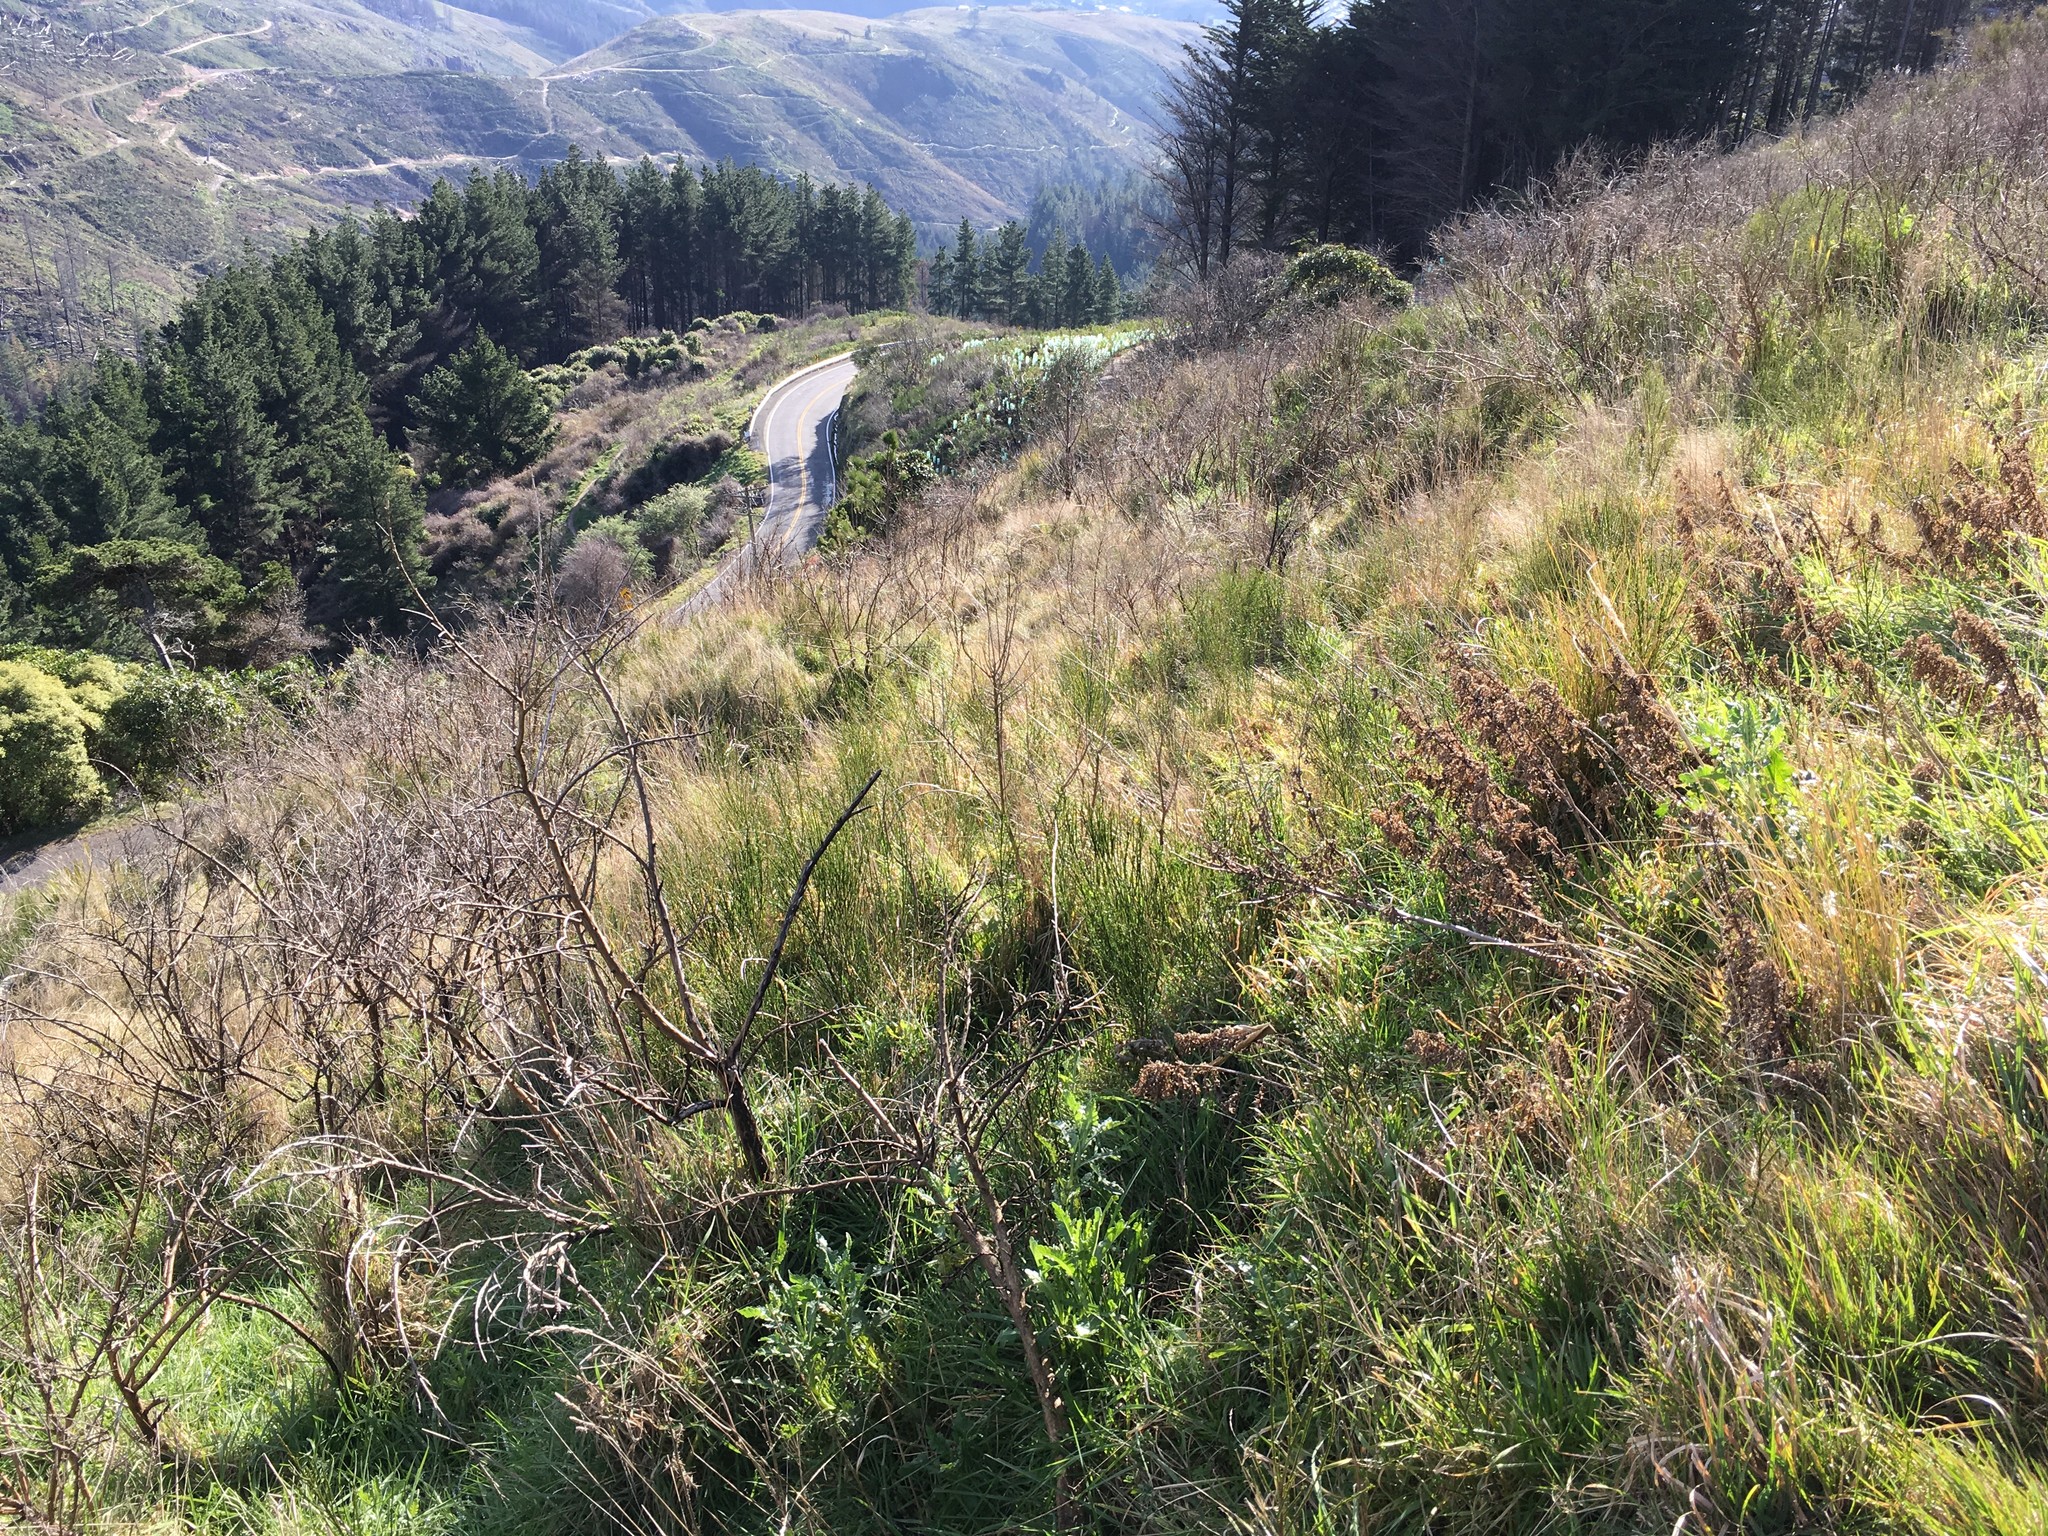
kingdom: Plantae
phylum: Tracheophyta
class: Magnoliopsida
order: Asterales
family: Asteraceae
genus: Senecio
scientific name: Senecio glomeratus
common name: Cutleaf burnweed
